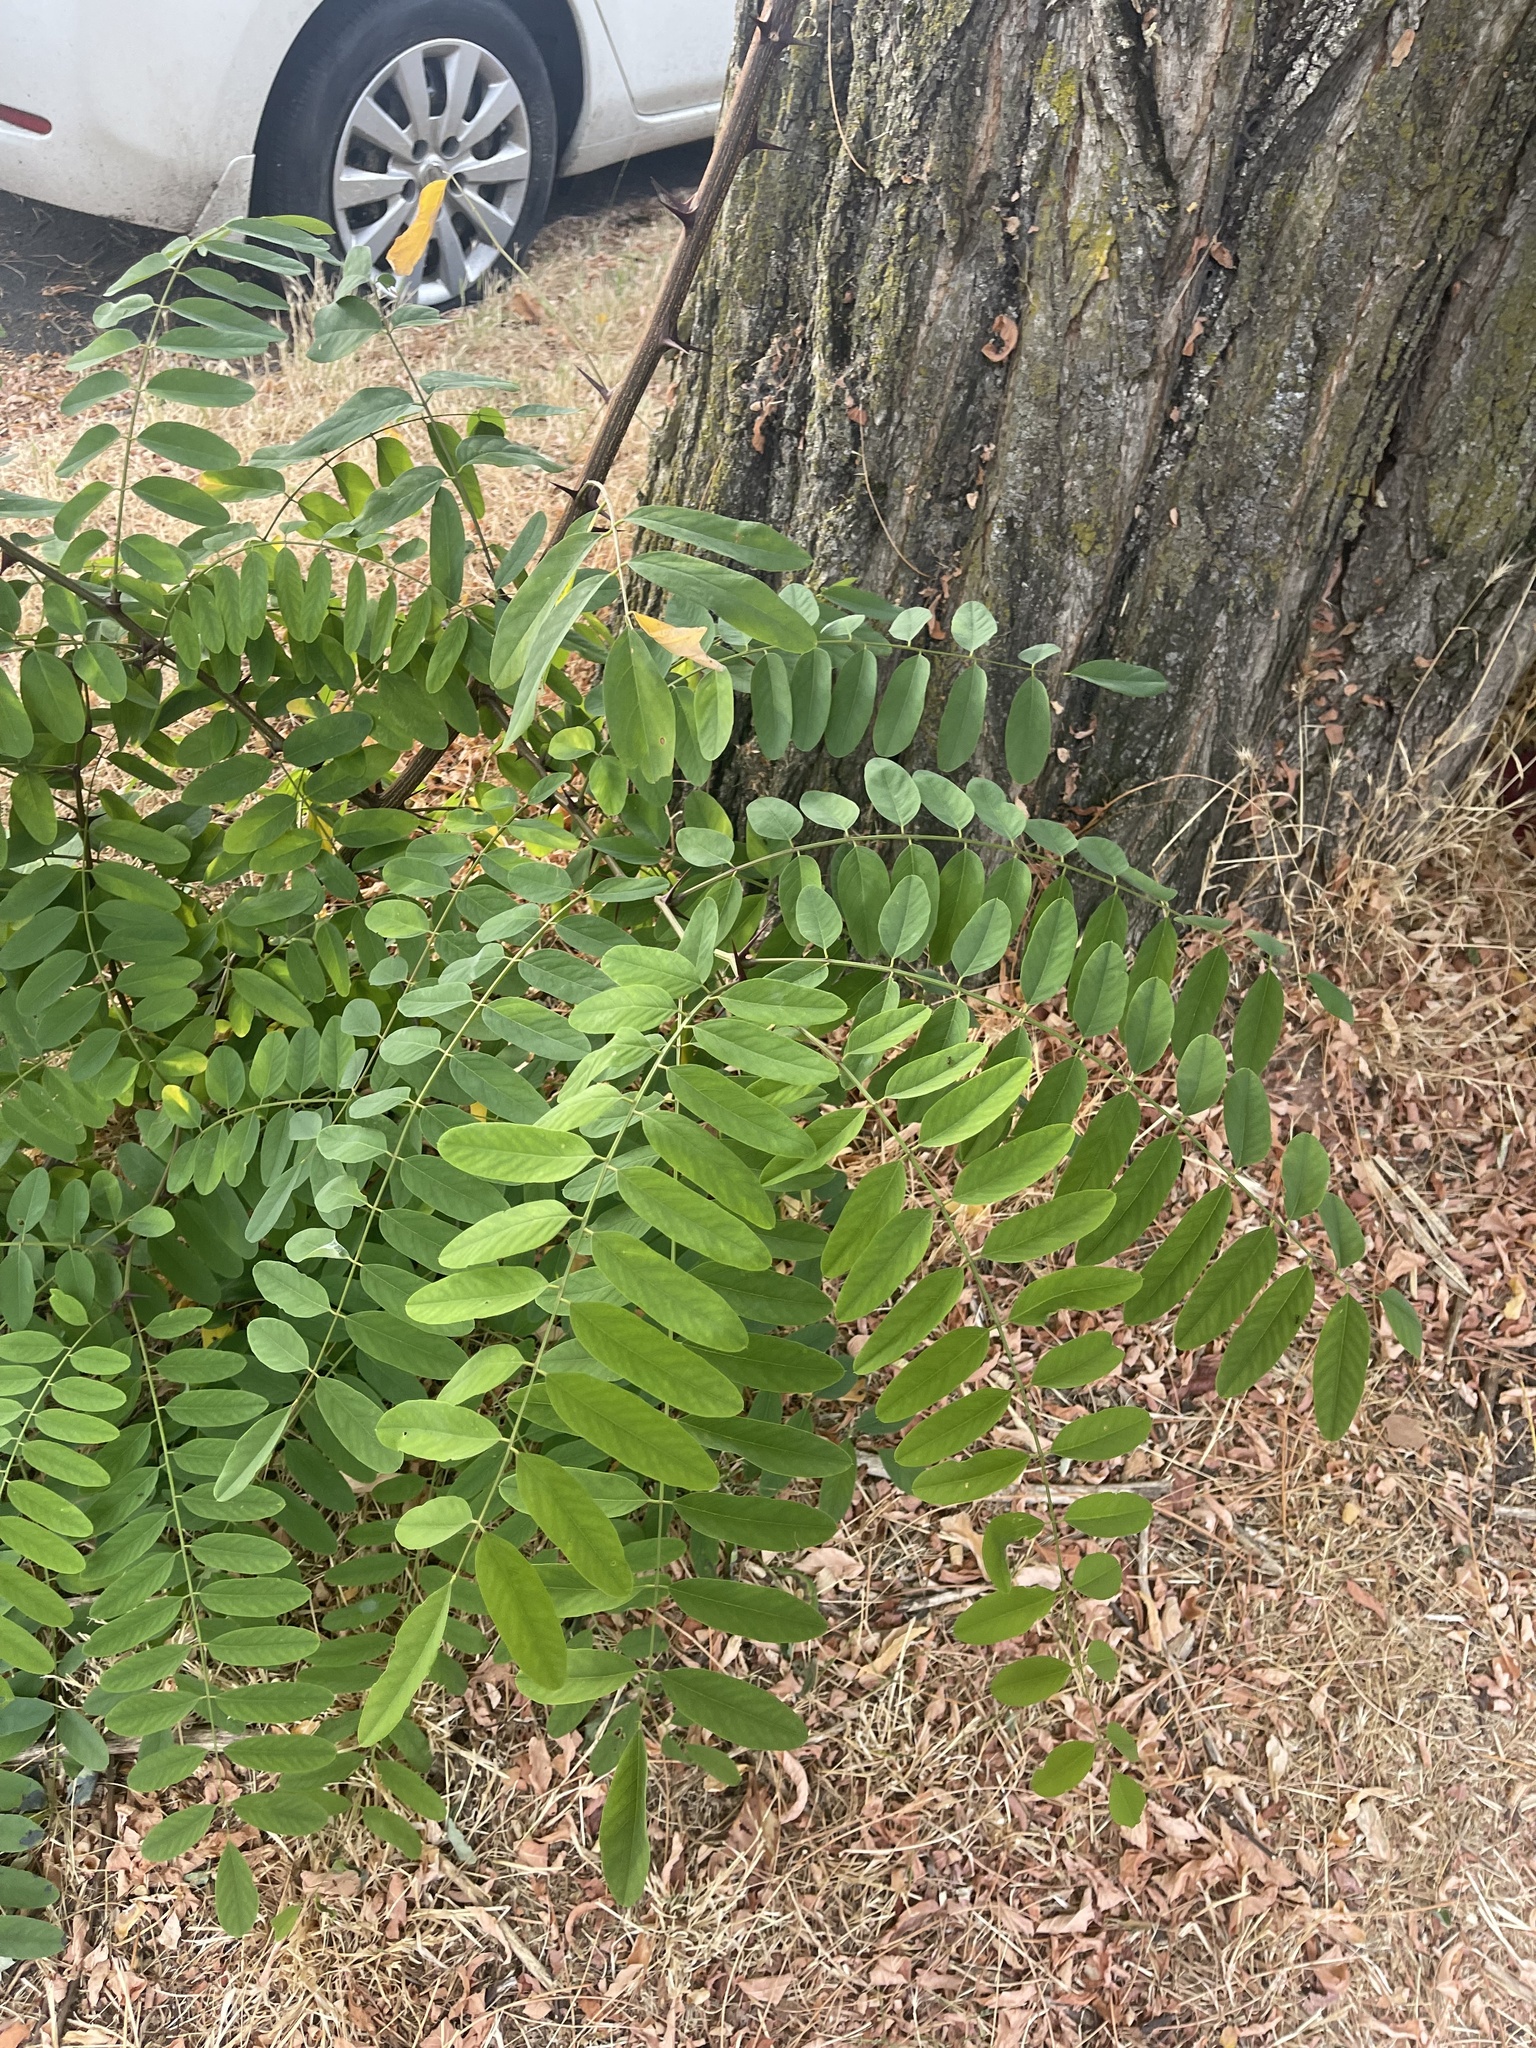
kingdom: Plantae
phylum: Tracheophyta
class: Magnoliopsida
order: Fabales
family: Fabaceae
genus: Robinia
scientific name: Robinia pseudoacacia
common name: Black locust
